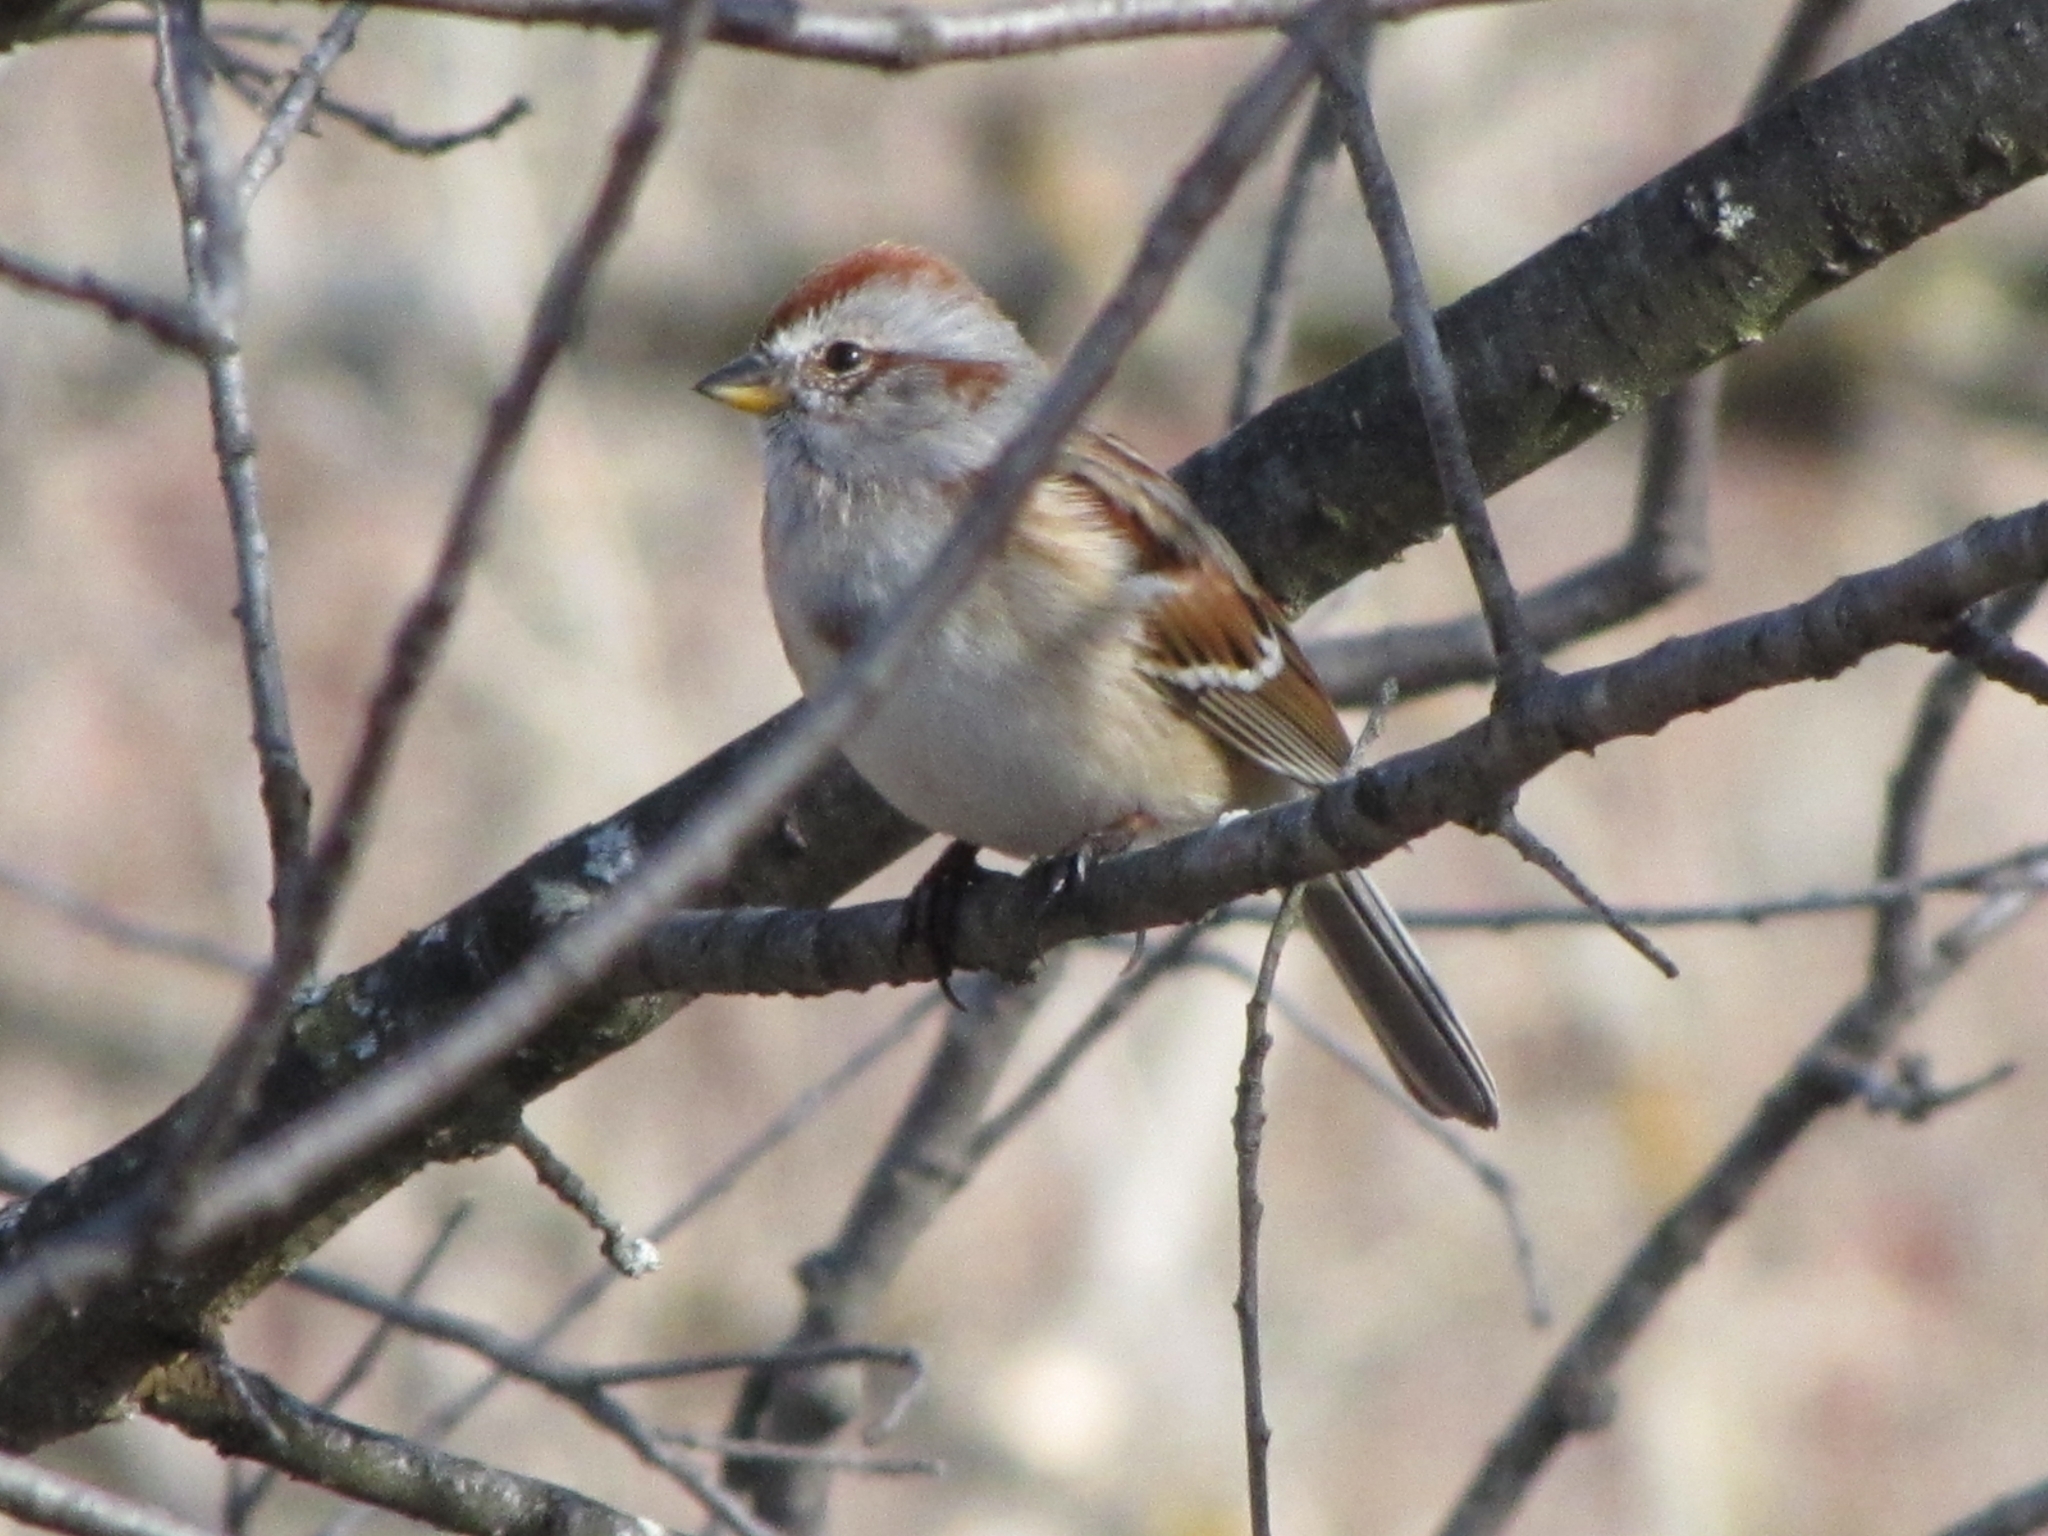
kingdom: Animalia
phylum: Chordata
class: Aves
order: Passeriformes
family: Passerellidae
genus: Spizelloides
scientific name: Spizelloides arborea
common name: American tree sparrow
